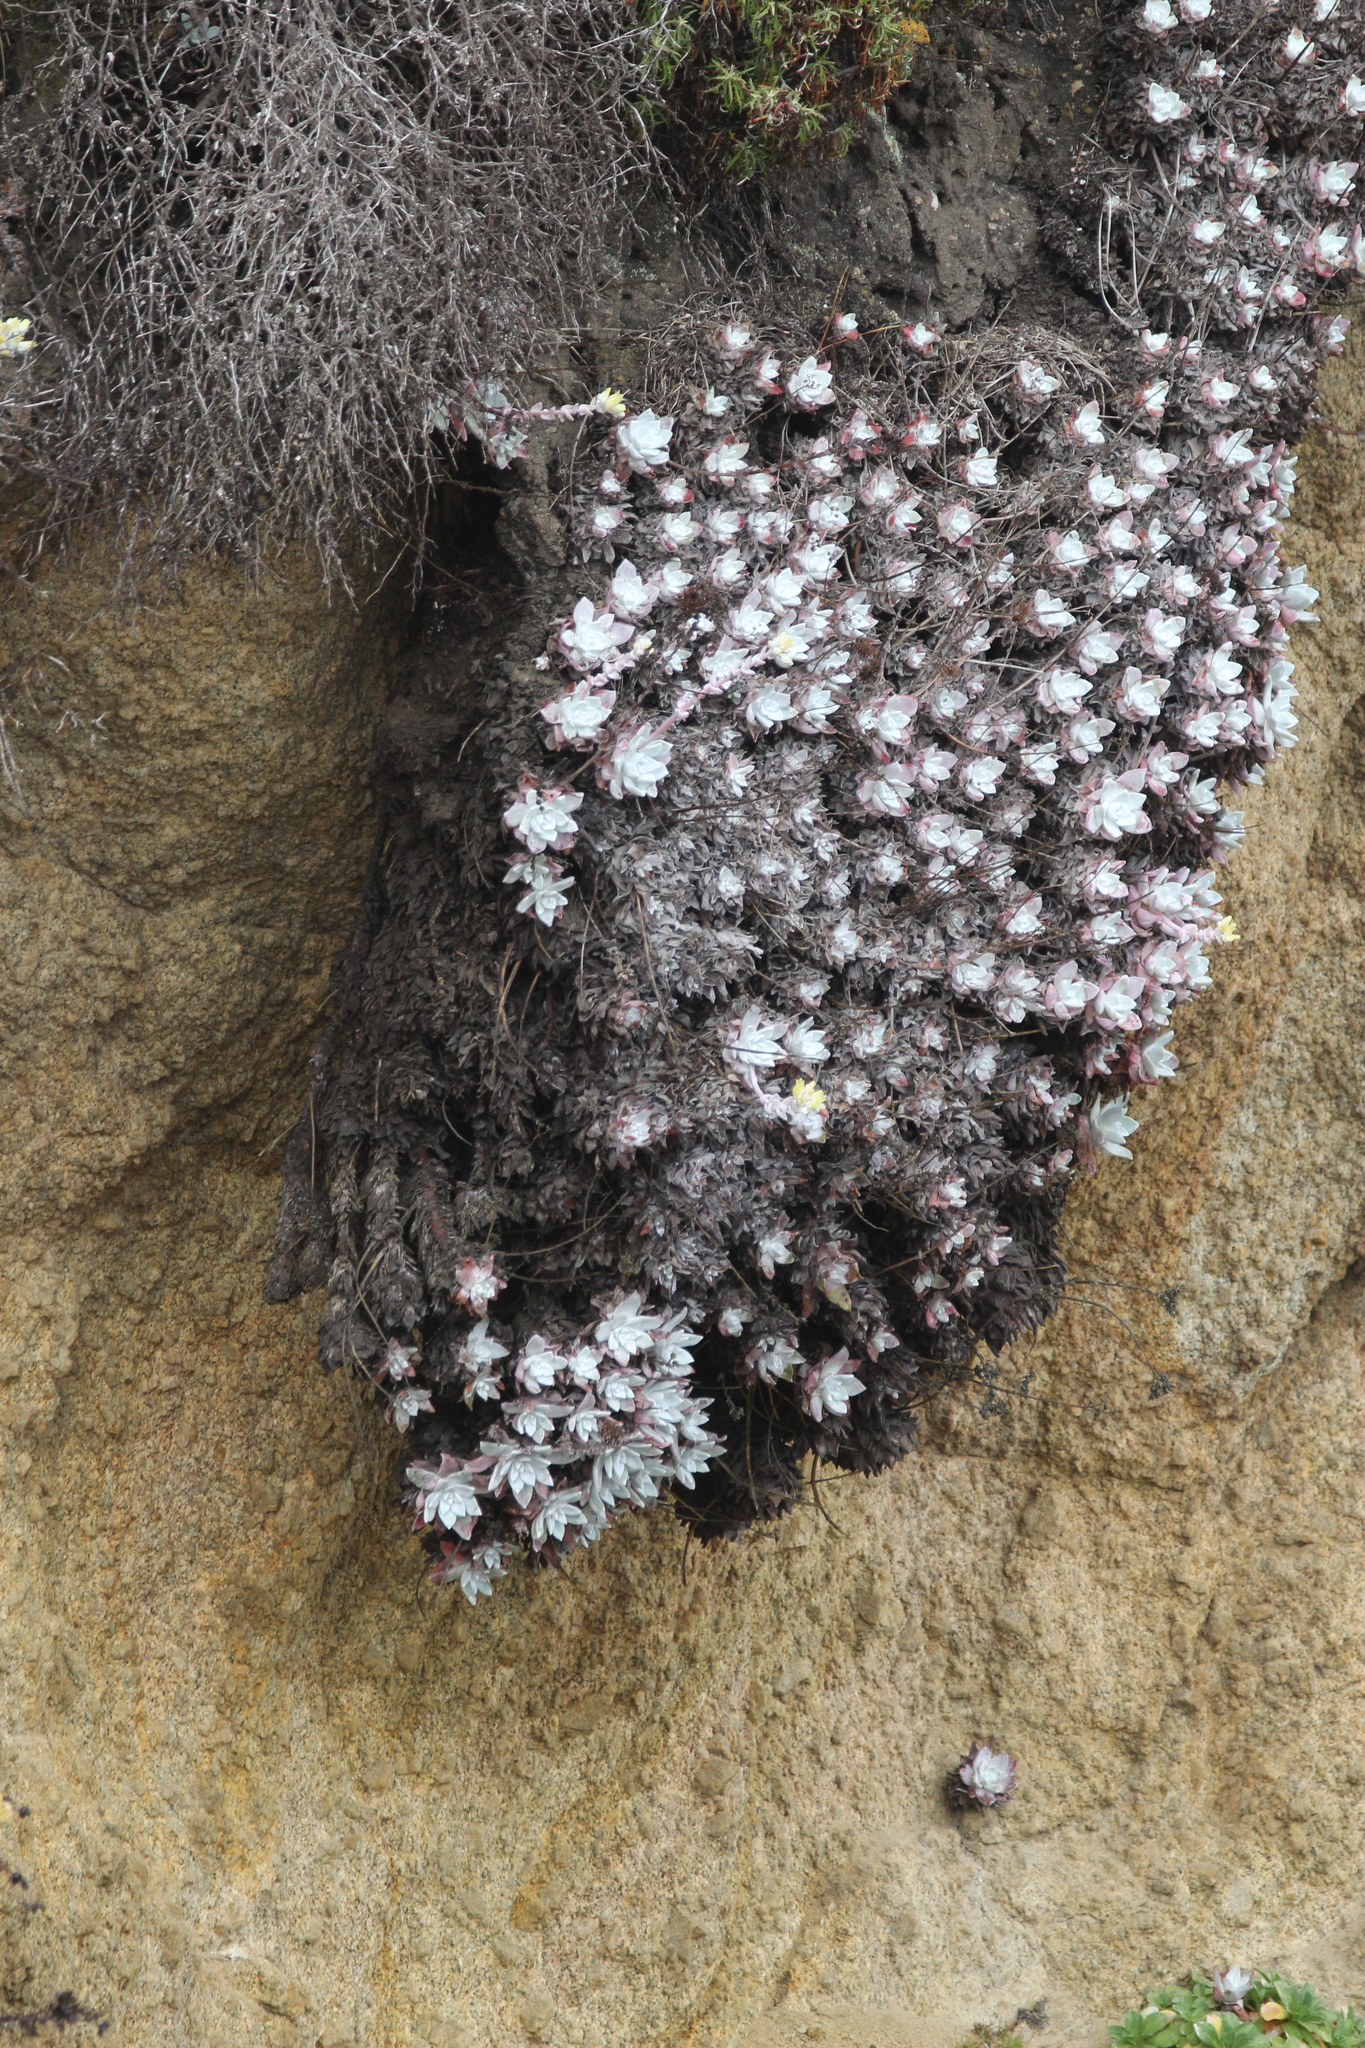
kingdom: Plantae
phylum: Tracheophyta
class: Magnoliopsida
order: Saxifragales
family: Crassulaceae
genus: Dudleya
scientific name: Dudleya farinosa
